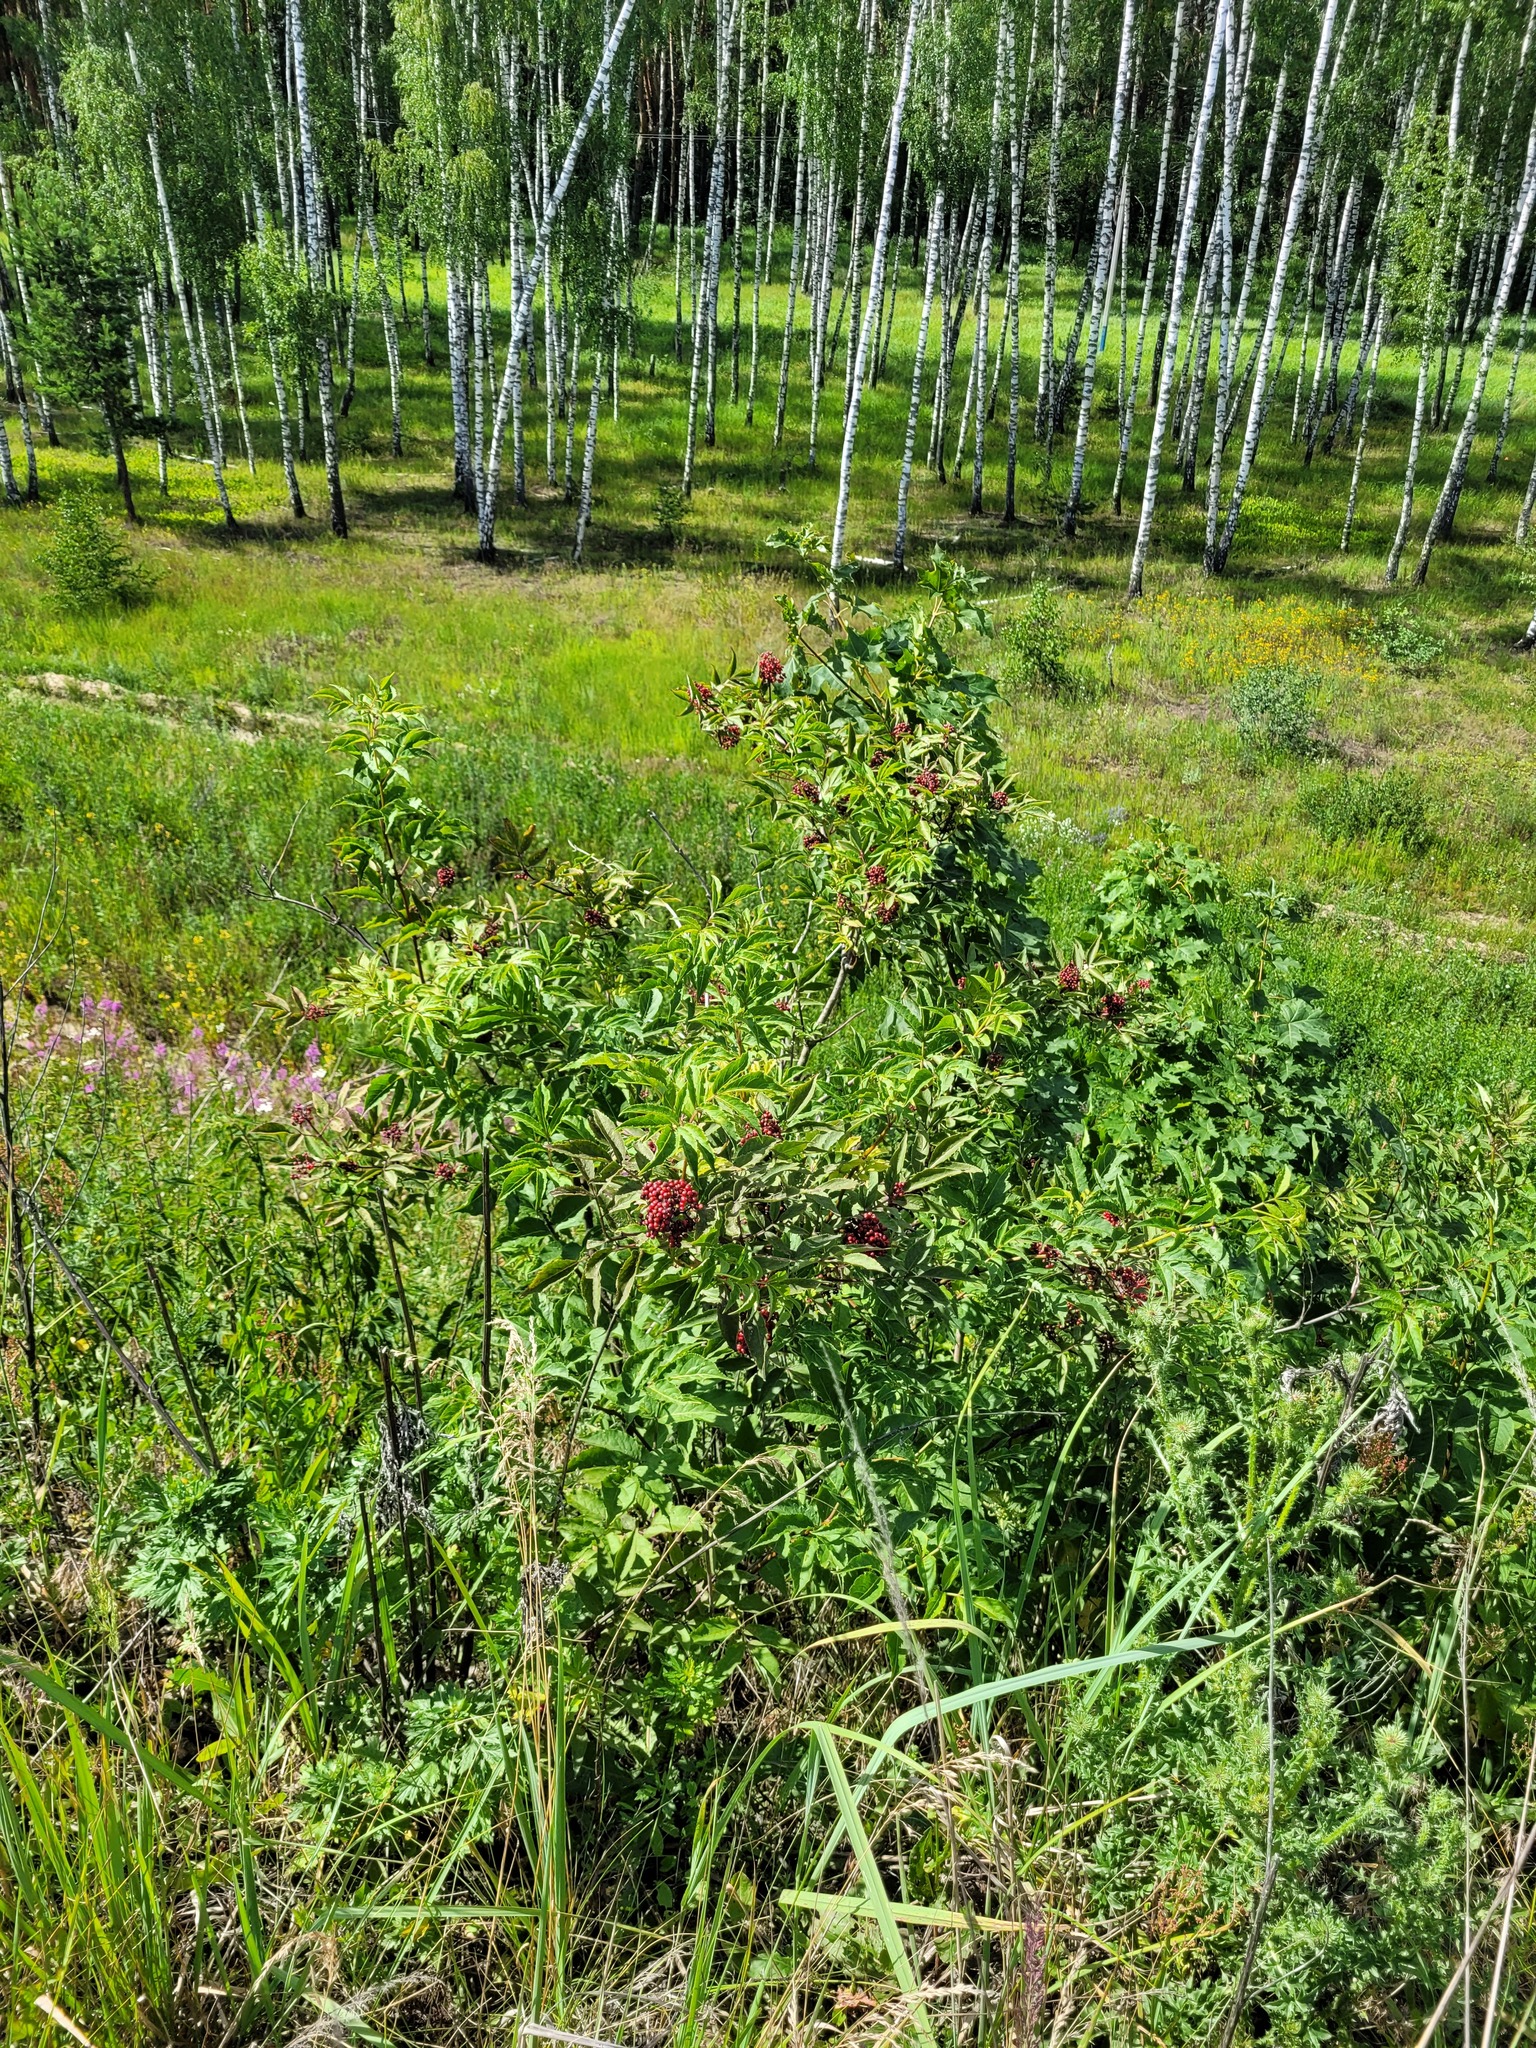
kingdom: Plantae
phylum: Tracheophyta
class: Magnoliopsida
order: Dipsacales
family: Viburnaceae
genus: Sambucus
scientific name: Sambucus racemosa
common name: Red-berried elder
